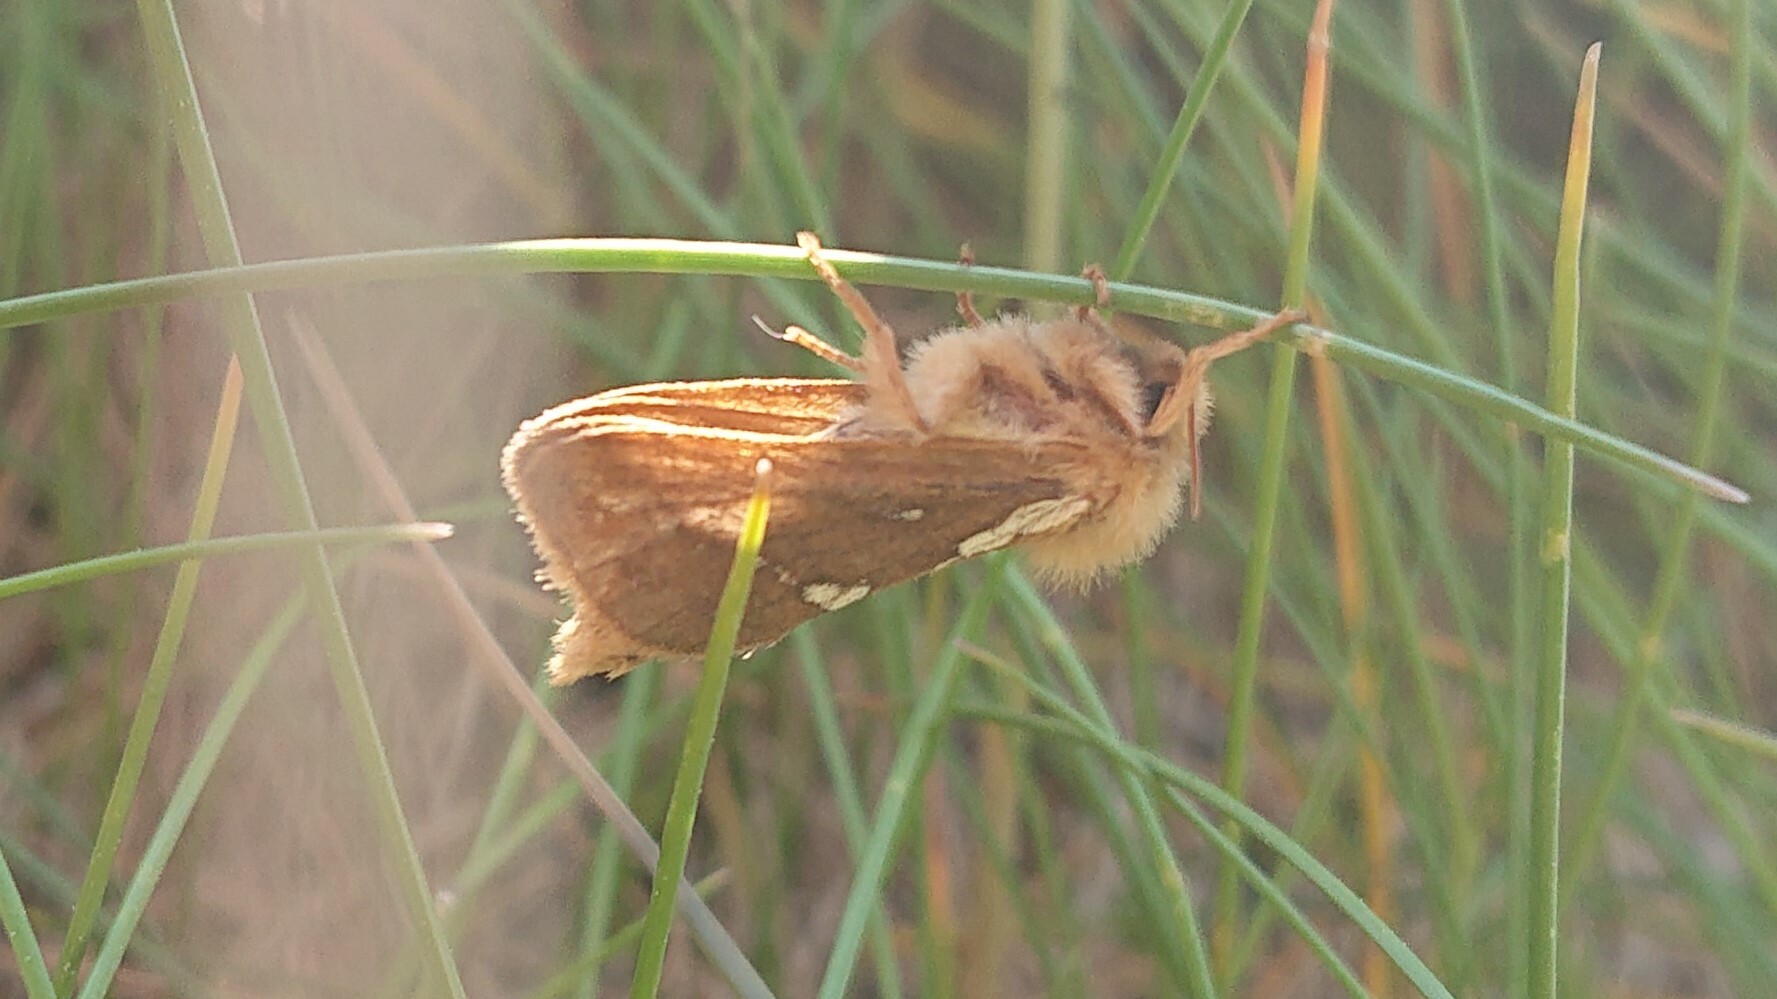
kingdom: Animalia
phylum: Arthropoda
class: Insecta
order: Lepidoptera
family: Hepialidae
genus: Korscheltellus
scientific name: Korscheltellus lupulina
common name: Common swift
